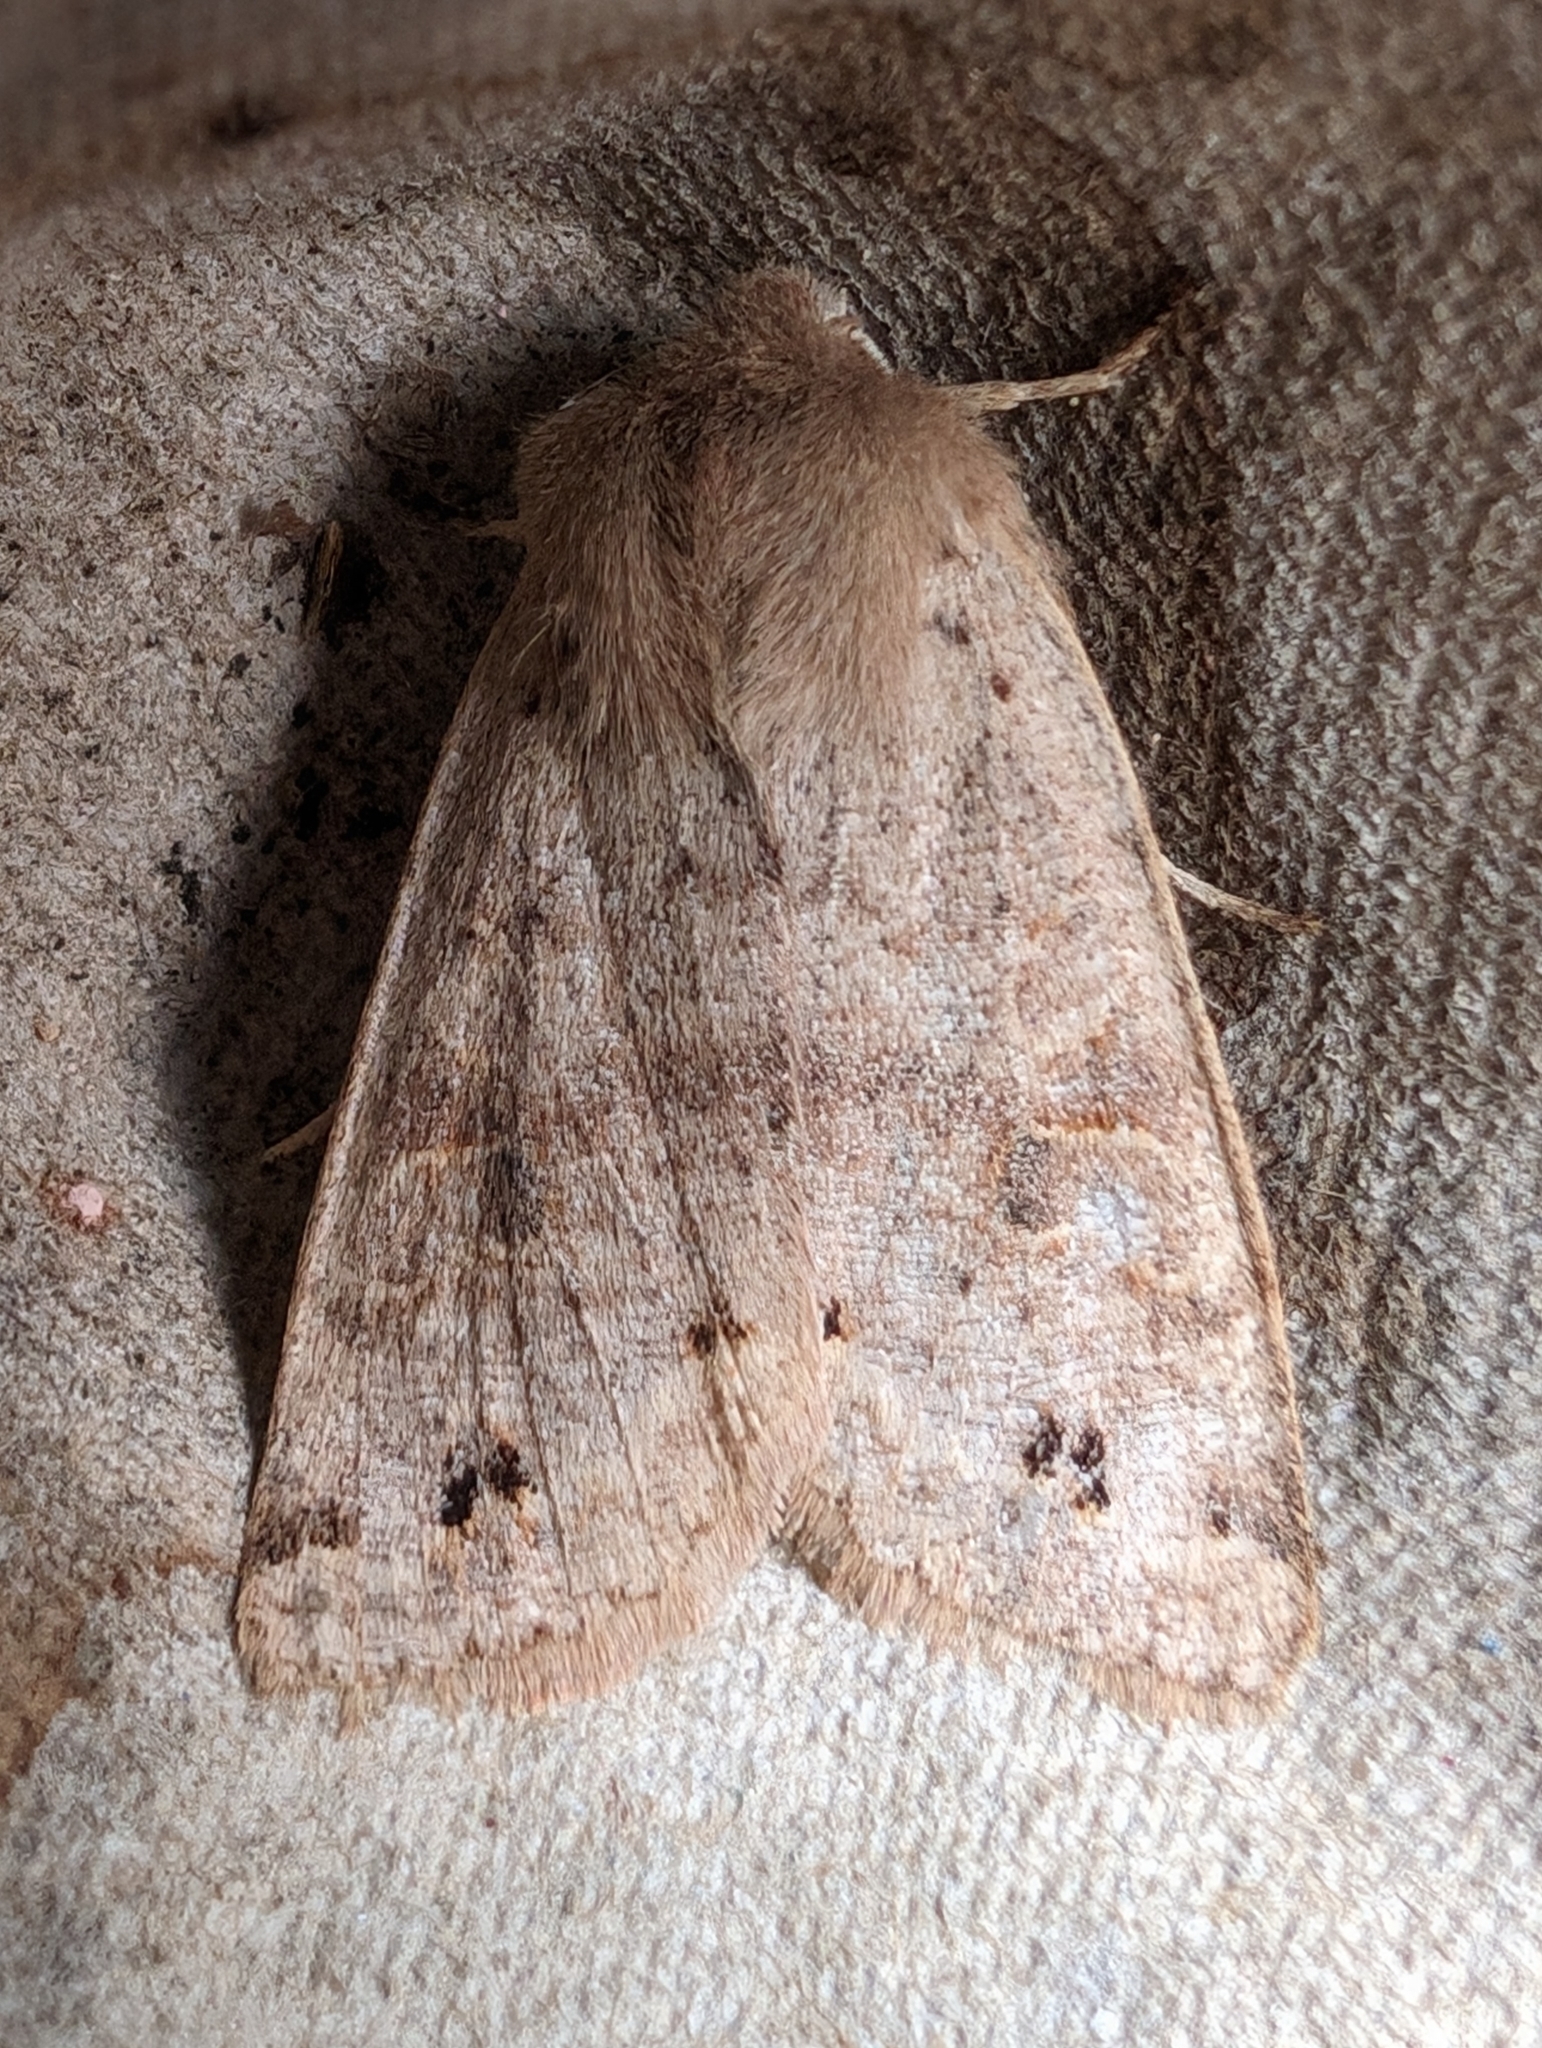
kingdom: Animalia
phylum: Arthropoda
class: Insecta
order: Lepidoptera
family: Noctuidae
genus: Anorthoa
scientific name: Anorthoa munda
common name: Twin-spotted quaker
